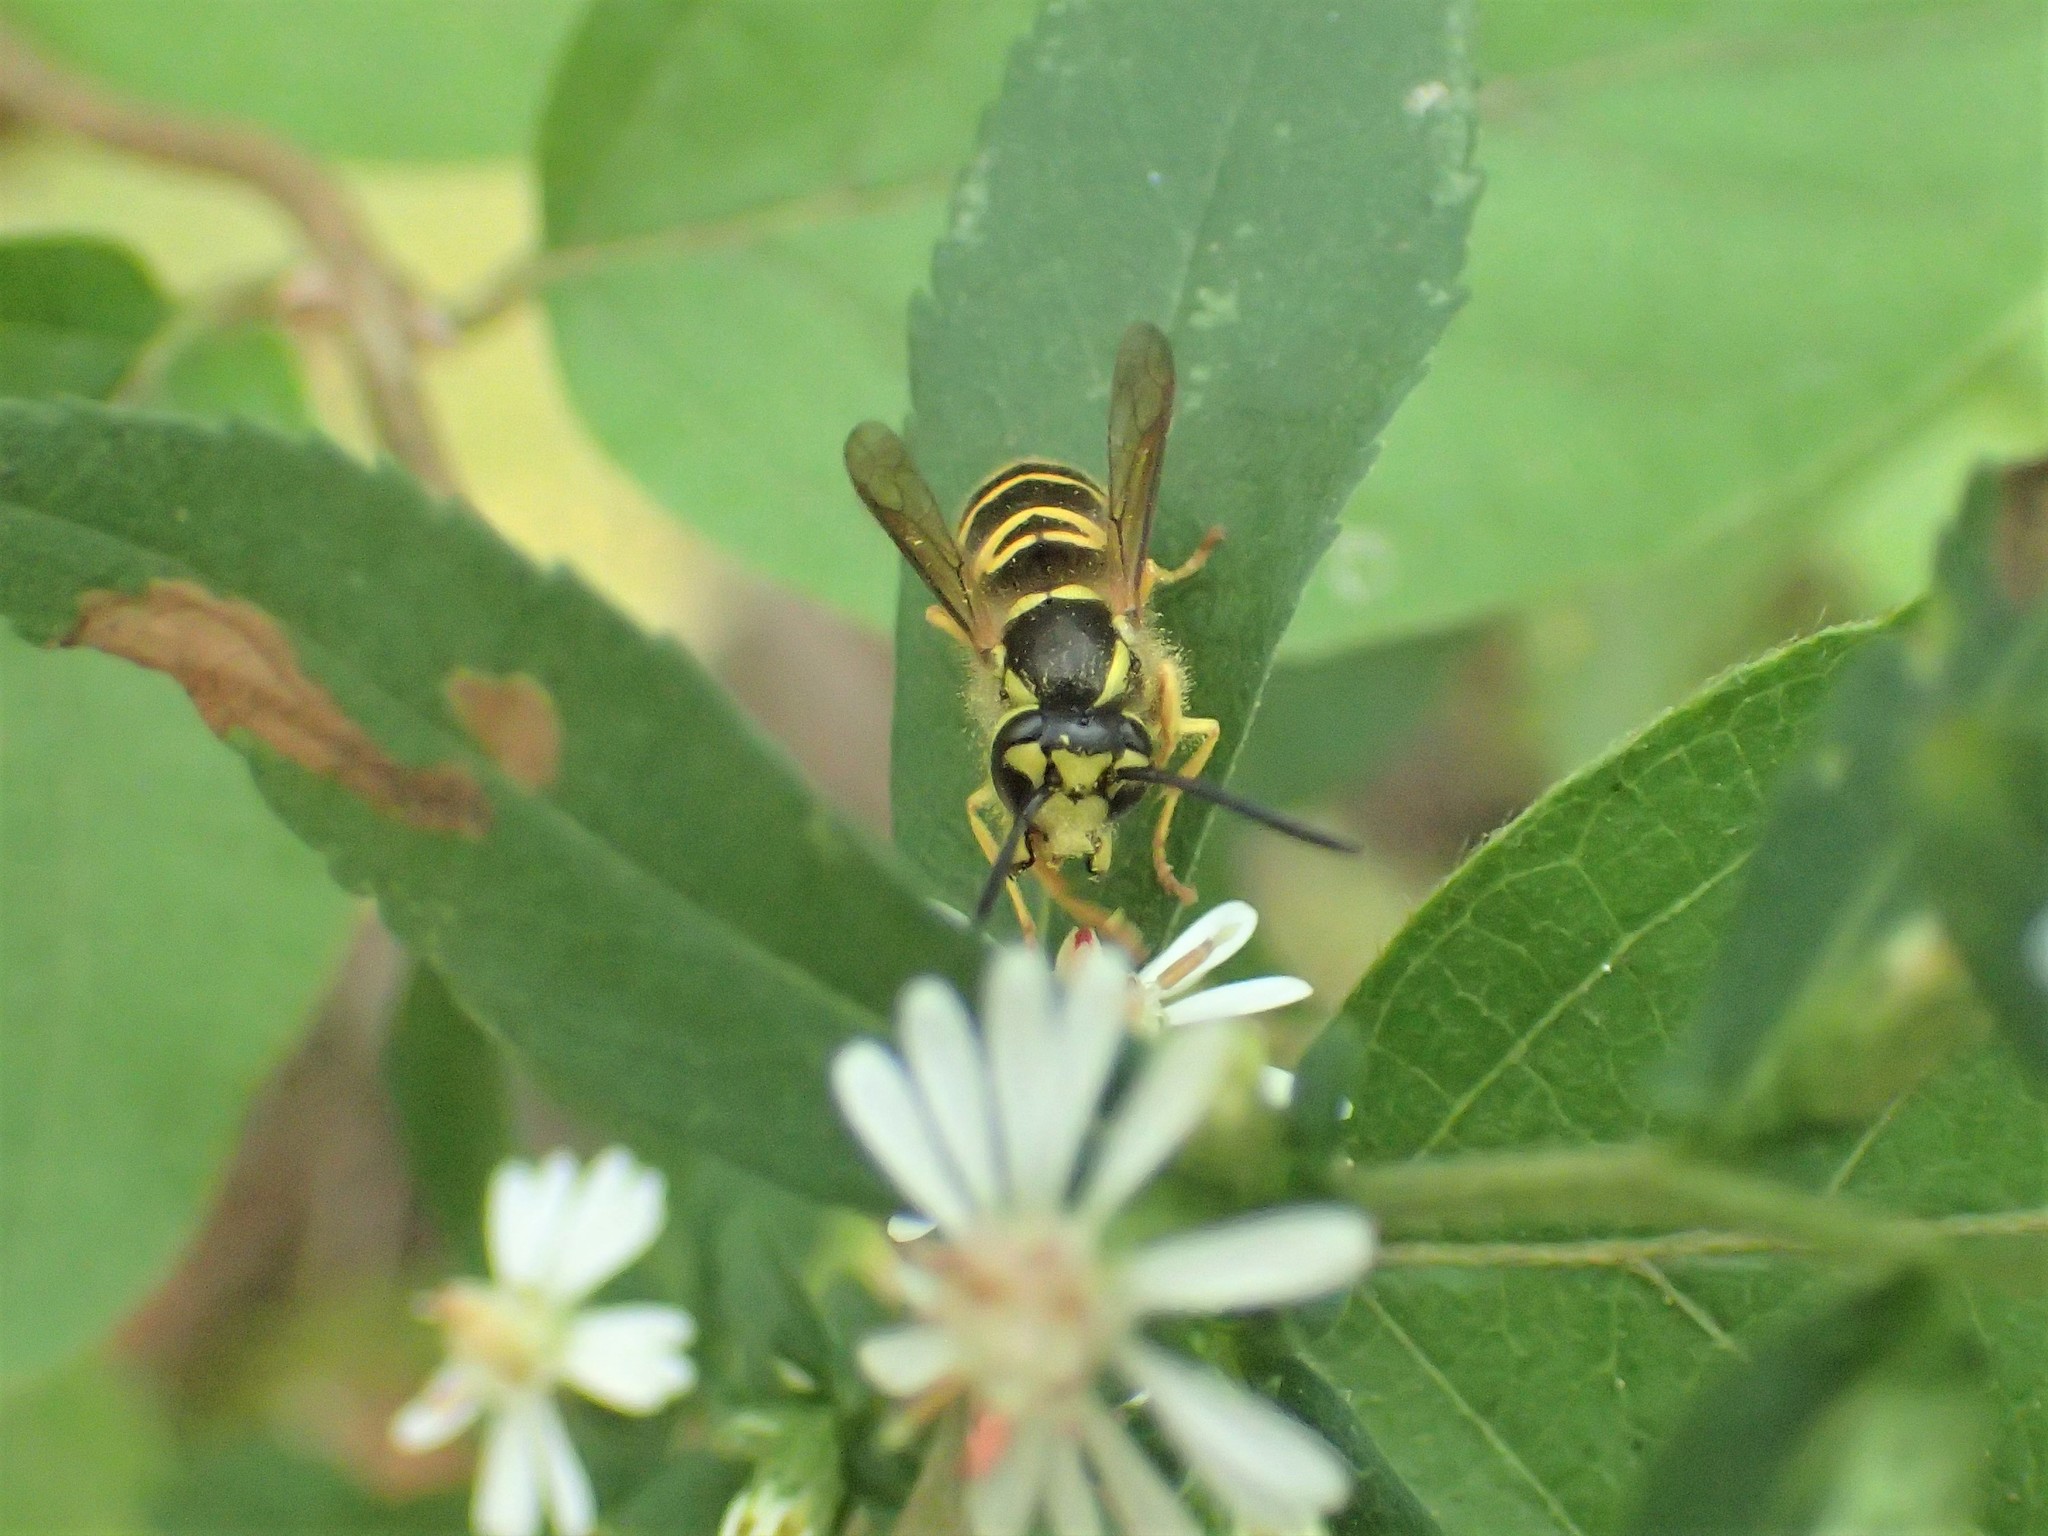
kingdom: Animalia
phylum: Arthropoda
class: Insecta
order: Hymenoptera
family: Vespidae
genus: Vespula
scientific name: Vespula maculifrons
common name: Eastern yellowjacket
